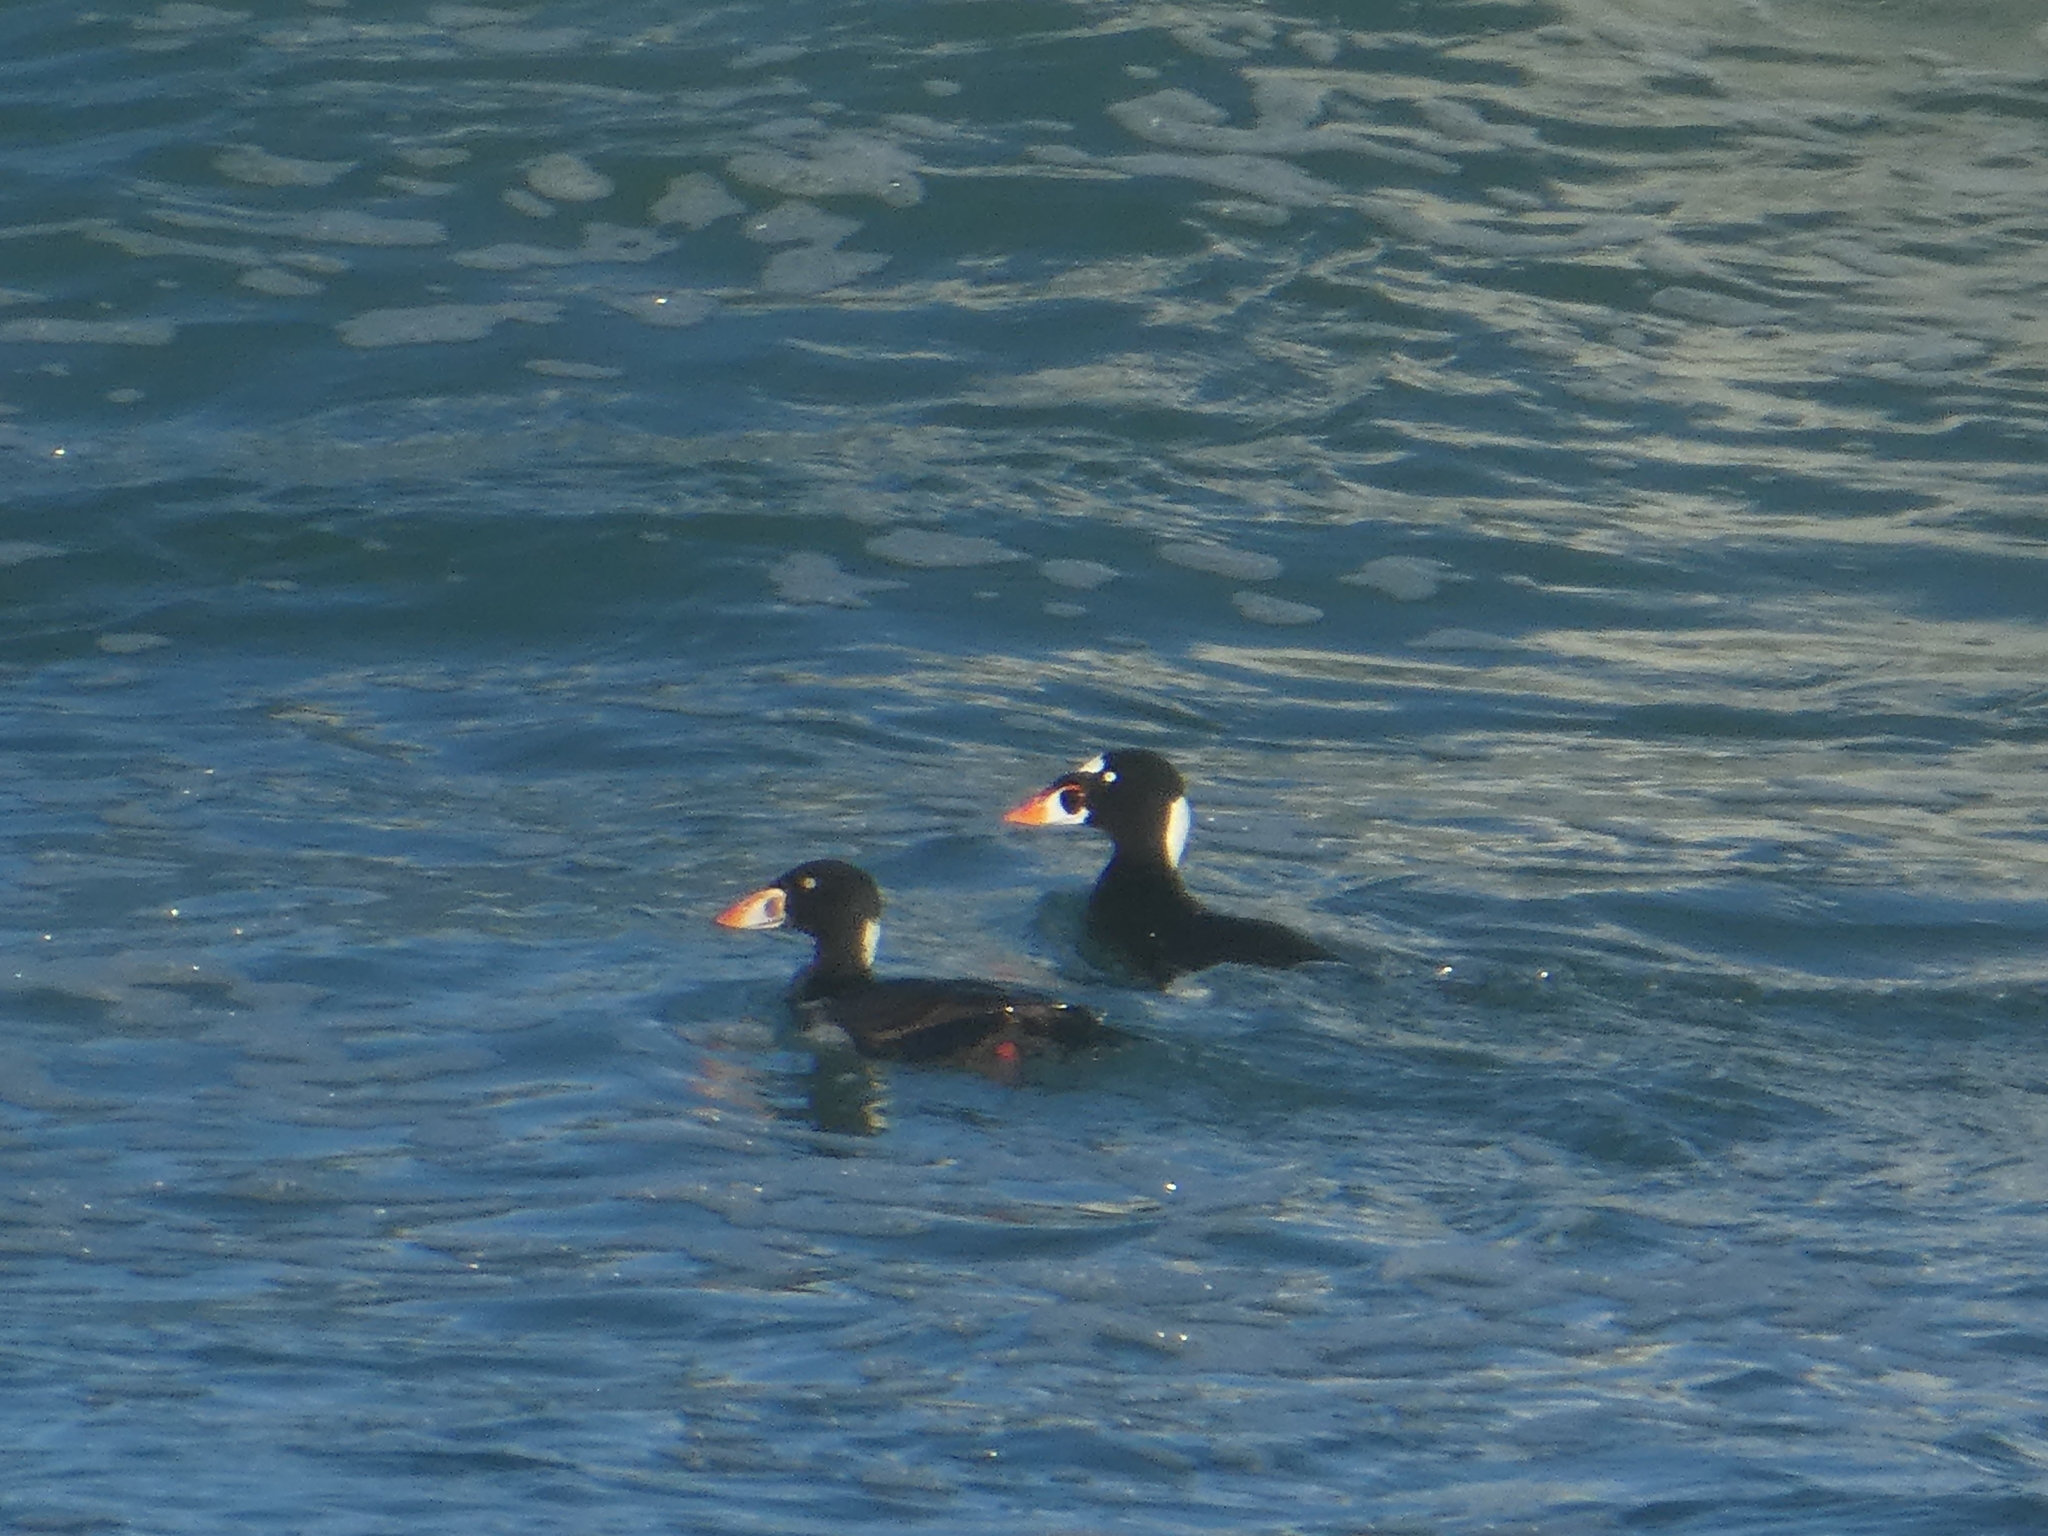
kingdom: Animalia
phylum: Chordata
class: Aves
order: Anseriformes
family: Anatidae
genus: Melanitta
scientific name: Melanitta perspicillata
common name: Surf scoter
